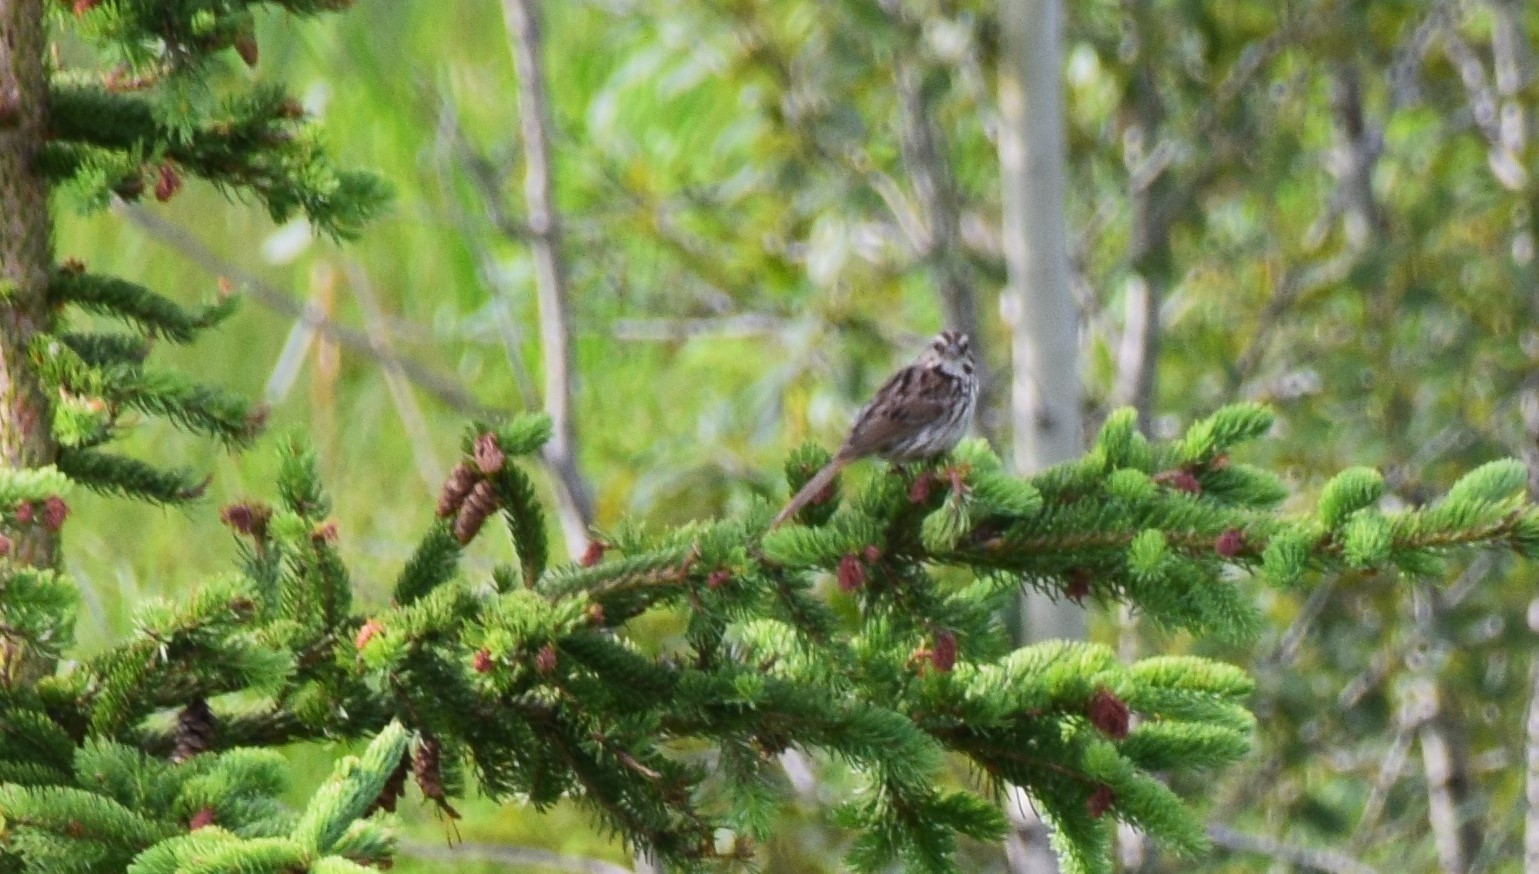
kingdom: Animalia
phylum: Chordata
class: Aves
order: Passeriformes
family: Passerellidae
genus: Melospiza
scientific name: Melospiza melodia
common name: Song sparrow
